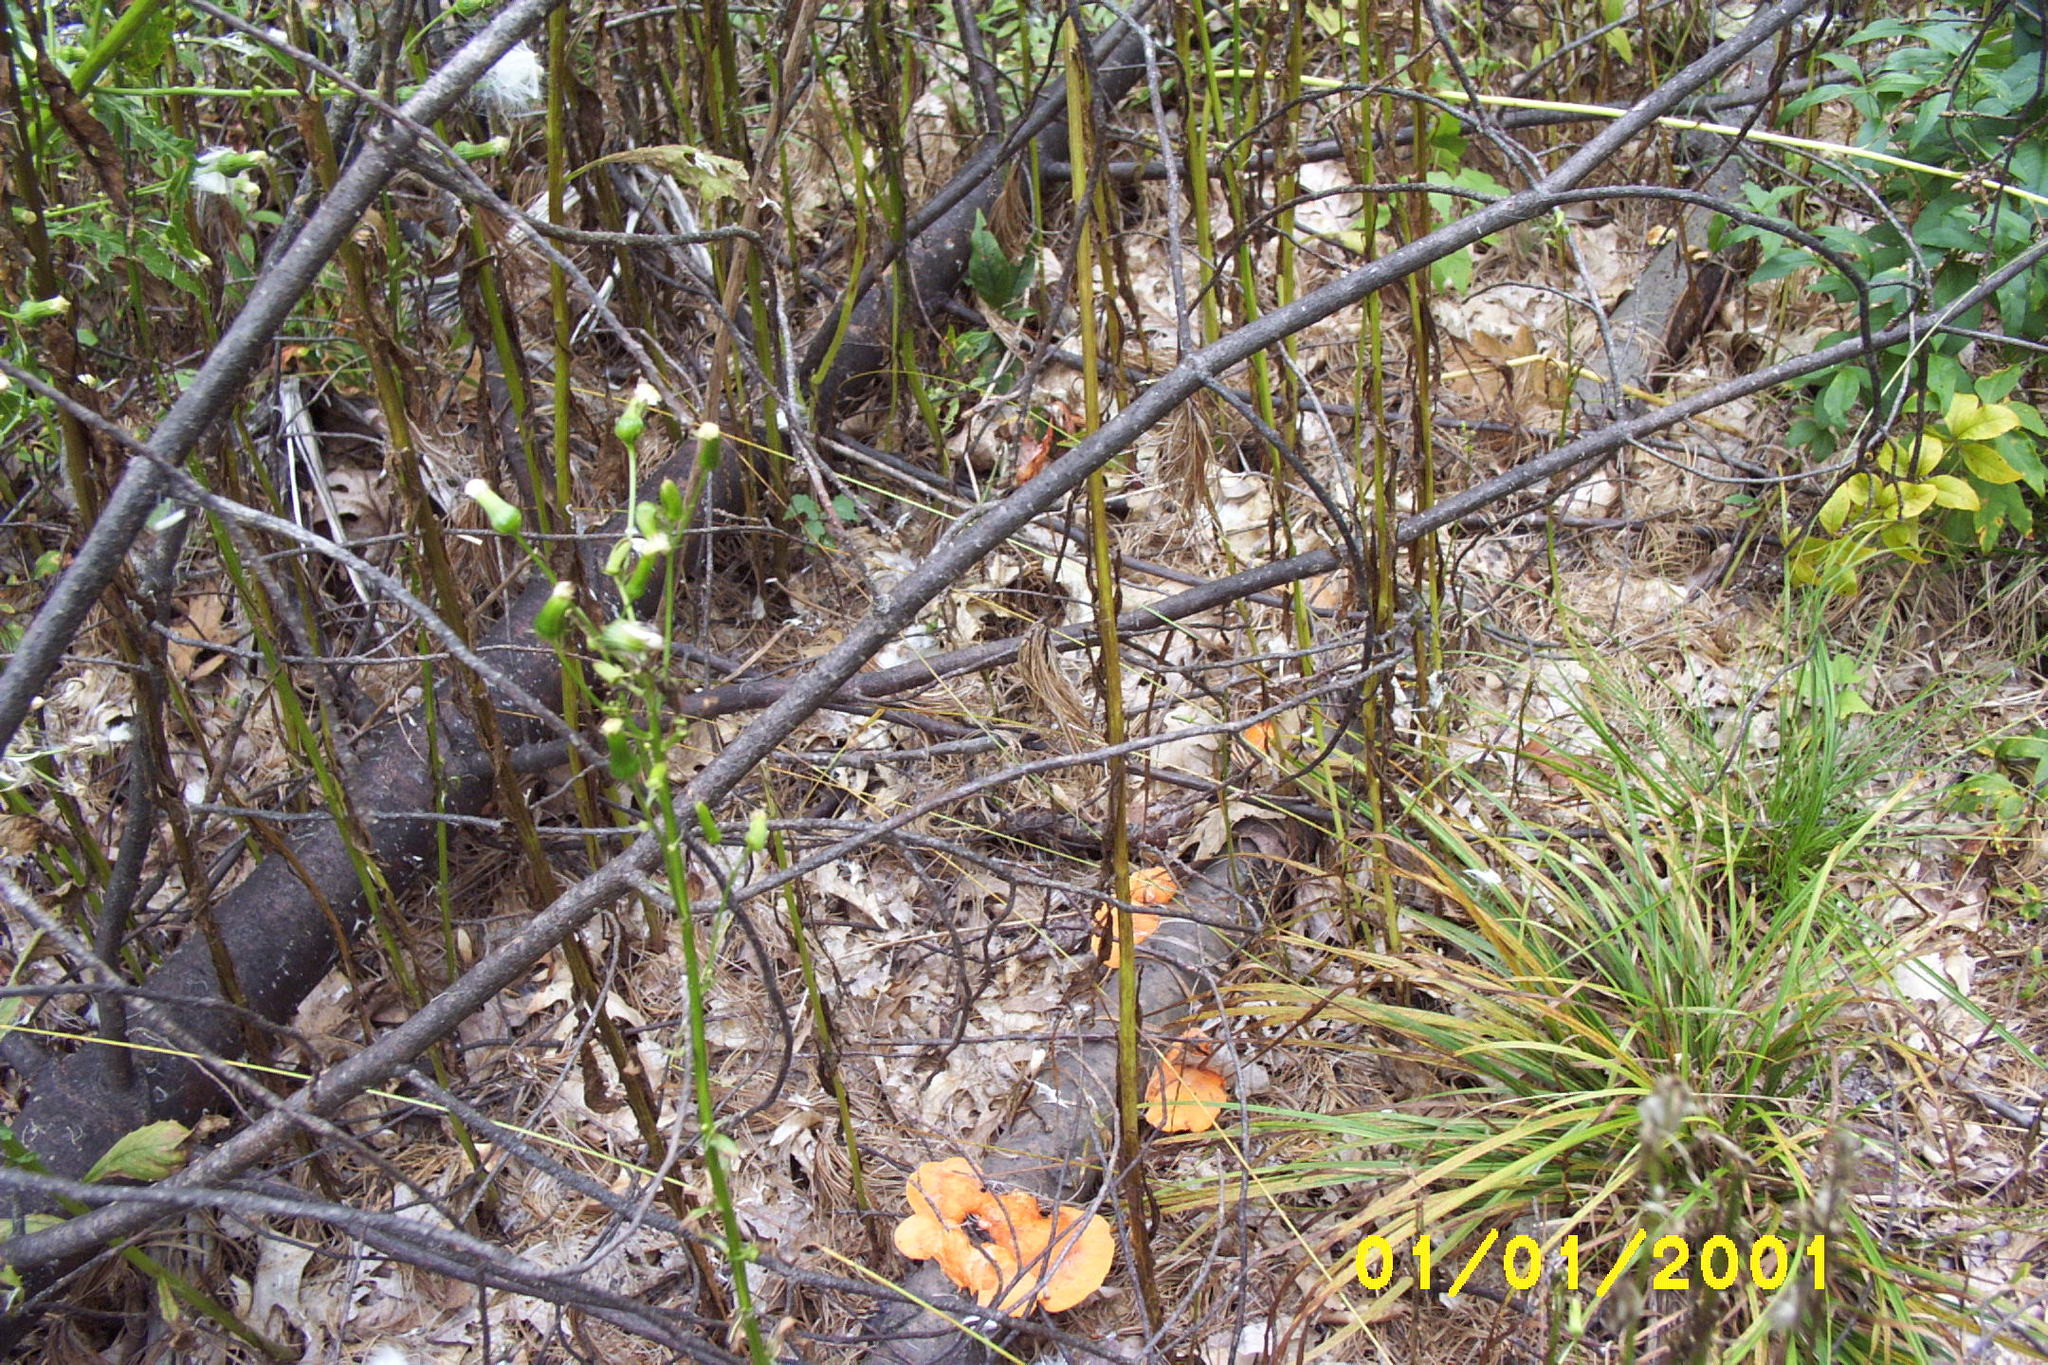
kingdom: Fungi
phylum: Basidiomycota
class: Agaricomycetes
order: Polyporales
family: Polyporaceae
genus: Trametes
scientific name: Trametes cinnabarina
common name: Northern cinnabar polypore
